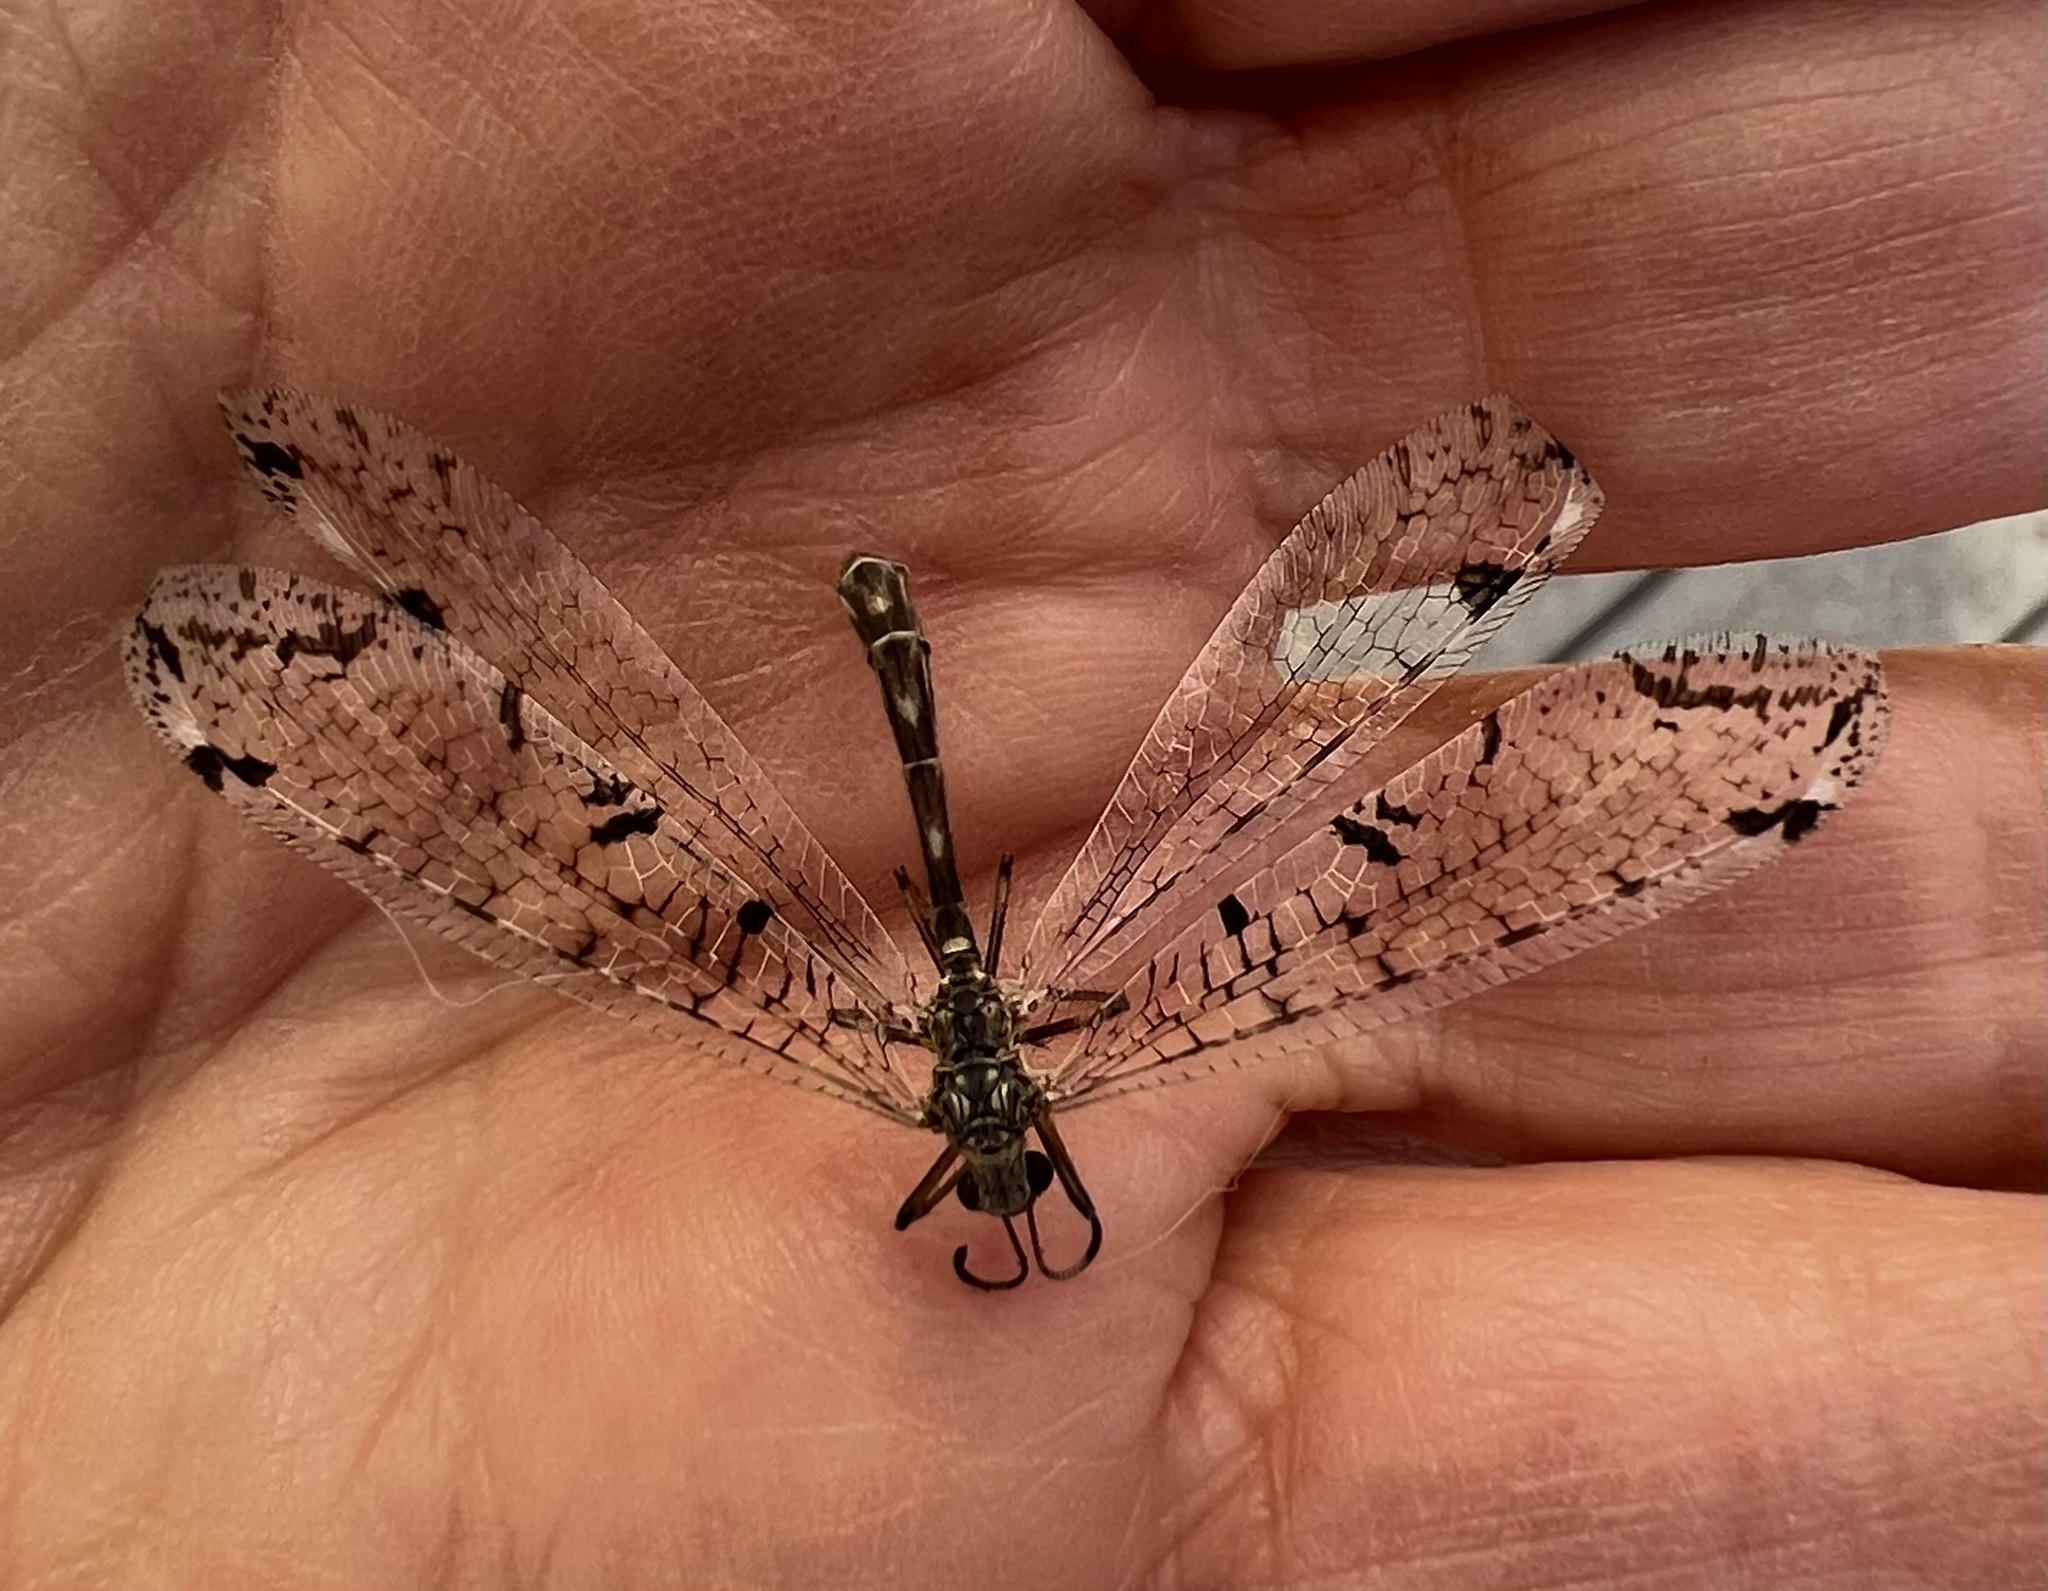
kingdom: Animalia
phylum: Arthropoda
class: Insecta
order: Neuroptera
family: Myrmeleontidae
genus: Dendroleon
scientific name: Dendroleon speciosus
